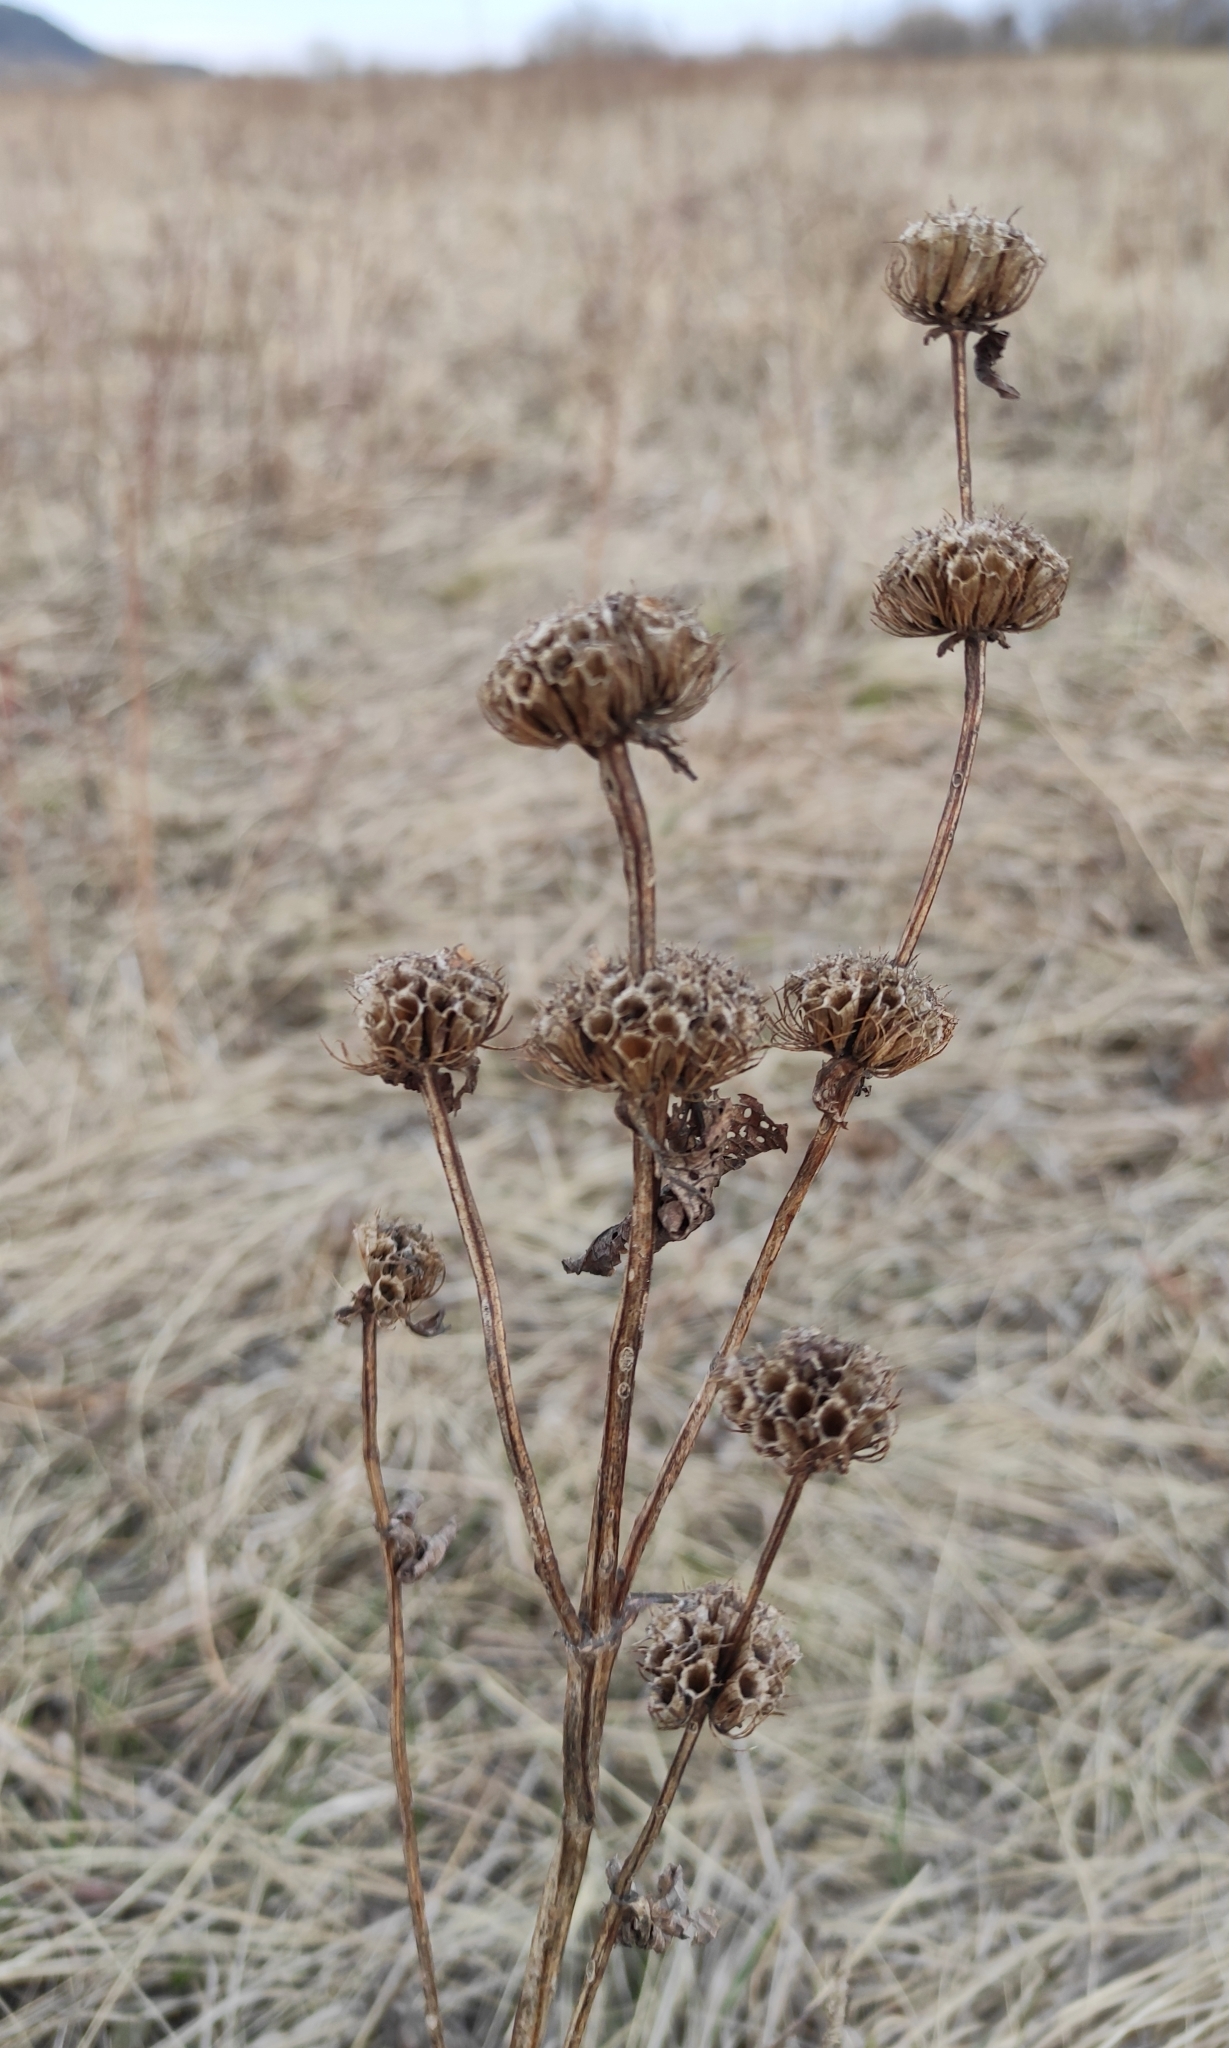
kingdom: Plantae
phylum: Tracheophyta
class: Magnoliopsida
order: Lamiales
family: Lamiaceae
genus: Phlomoides
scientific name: Phlomoides tuberosa
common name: Tuberous jerusalem sage
